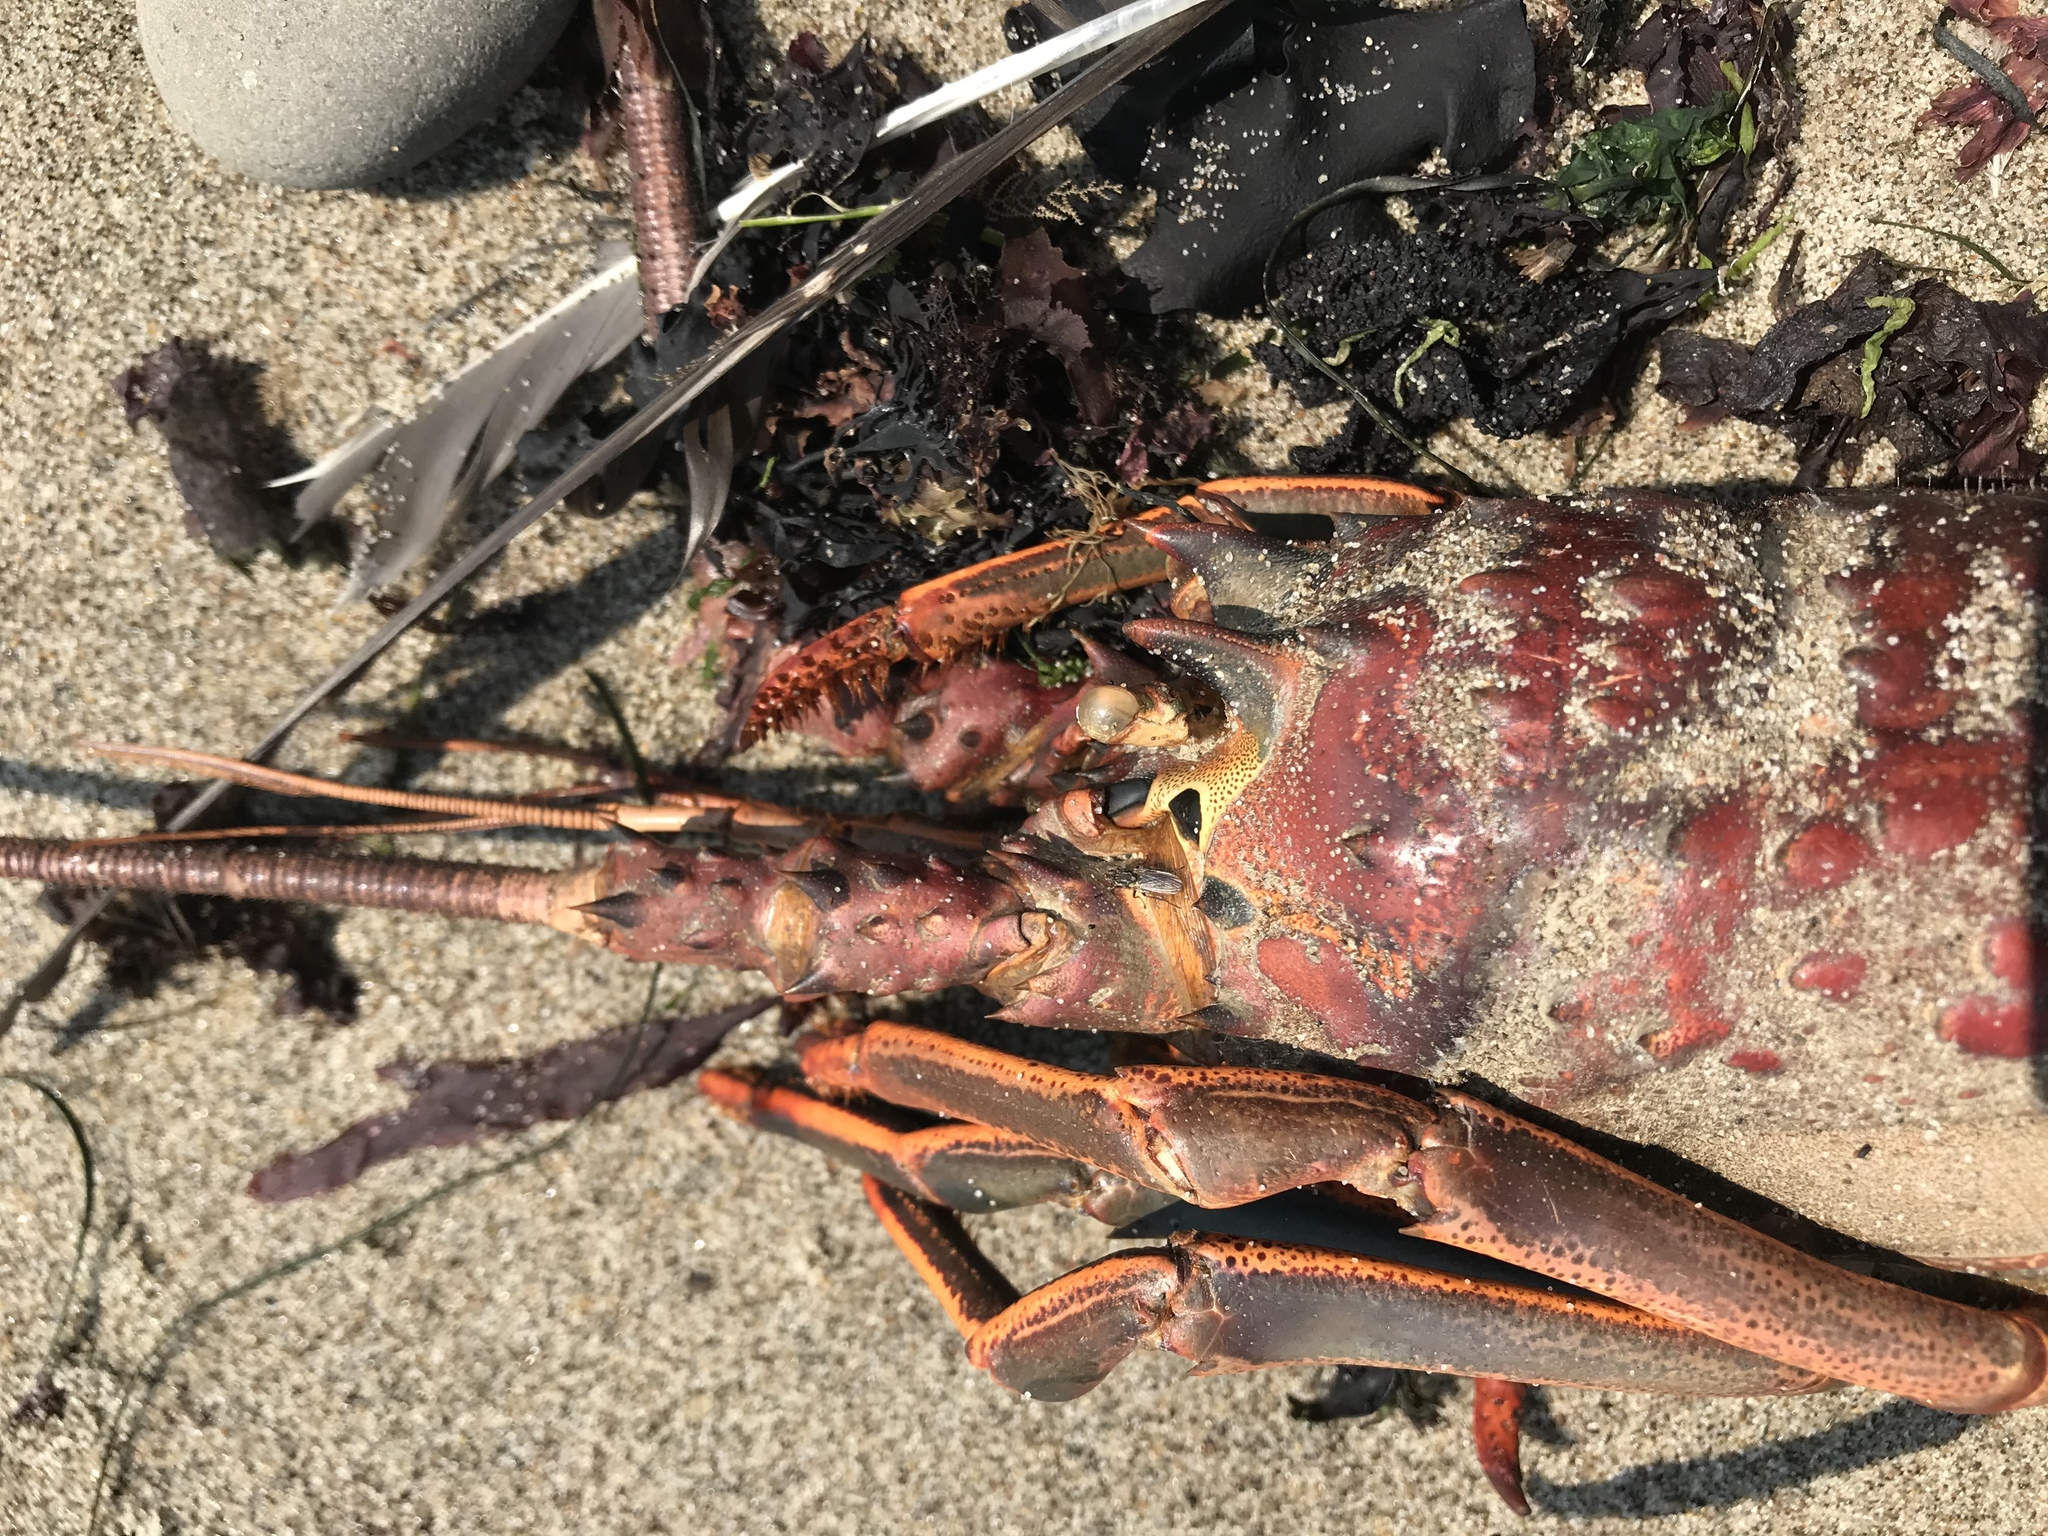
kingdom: Animalia
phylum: Arthropoda
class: Malacostraca
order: Decapoda
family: Palinuridae
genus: Panulirus
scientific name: Panulirus interruptus
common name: California spiny lobster
